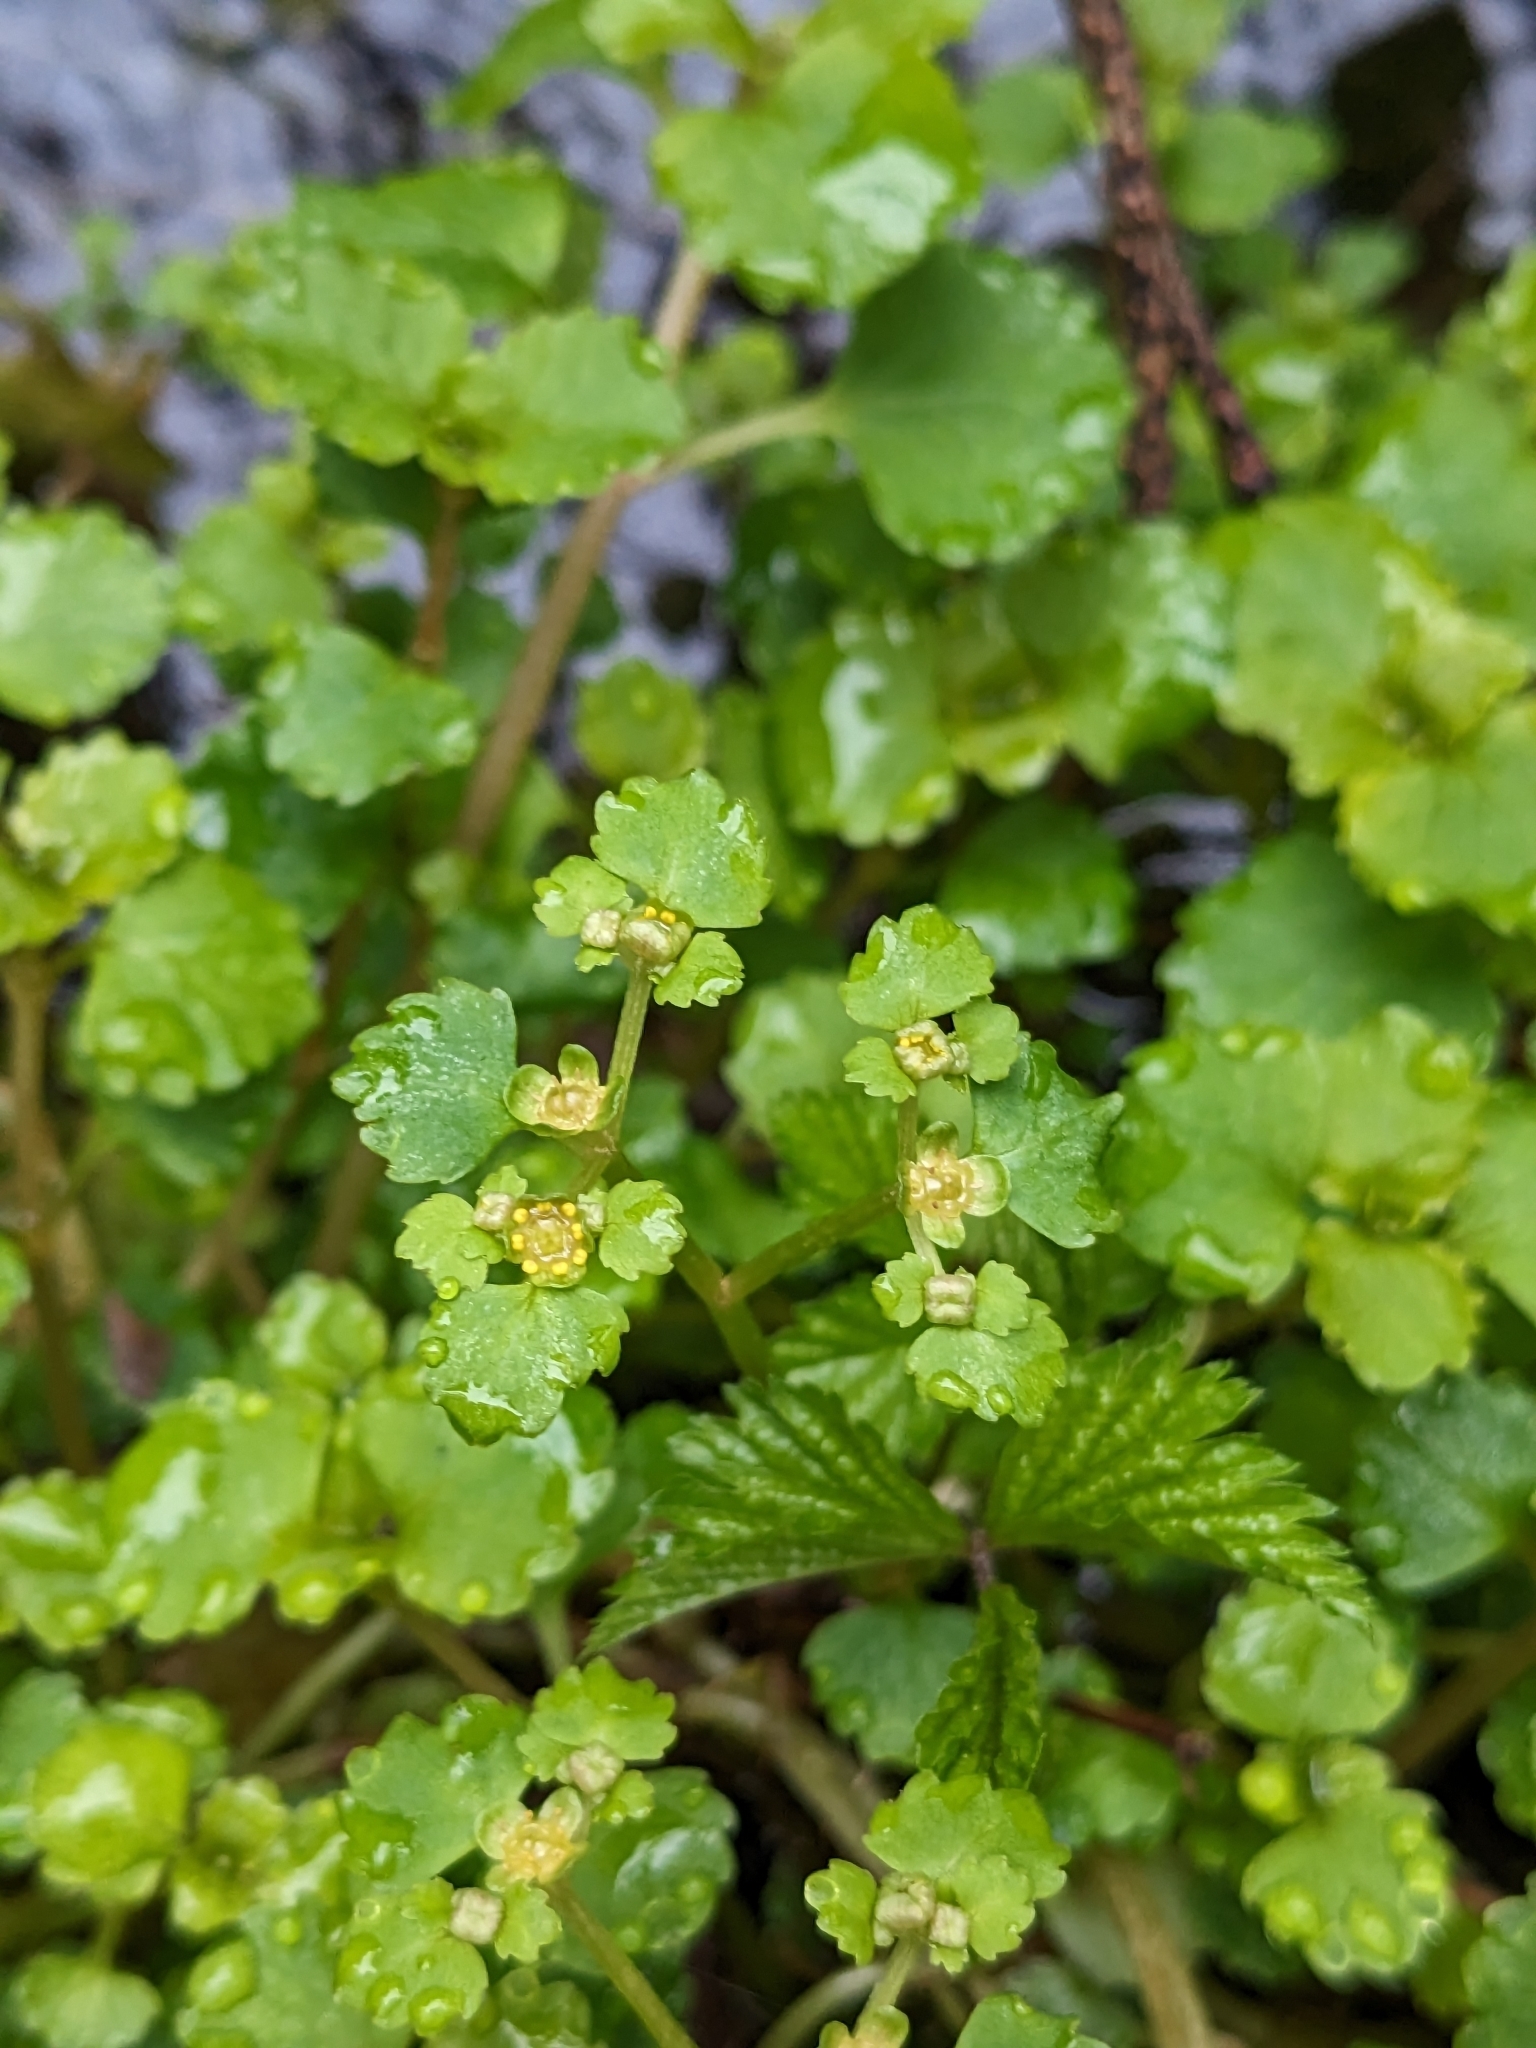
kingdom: Plantae
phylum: Tracheophyta
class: Magnoliopsida
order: Saxifragales
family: Saxifragaceae
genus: Chrysosplenium
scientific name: Chrysosplenium glechomifolium
